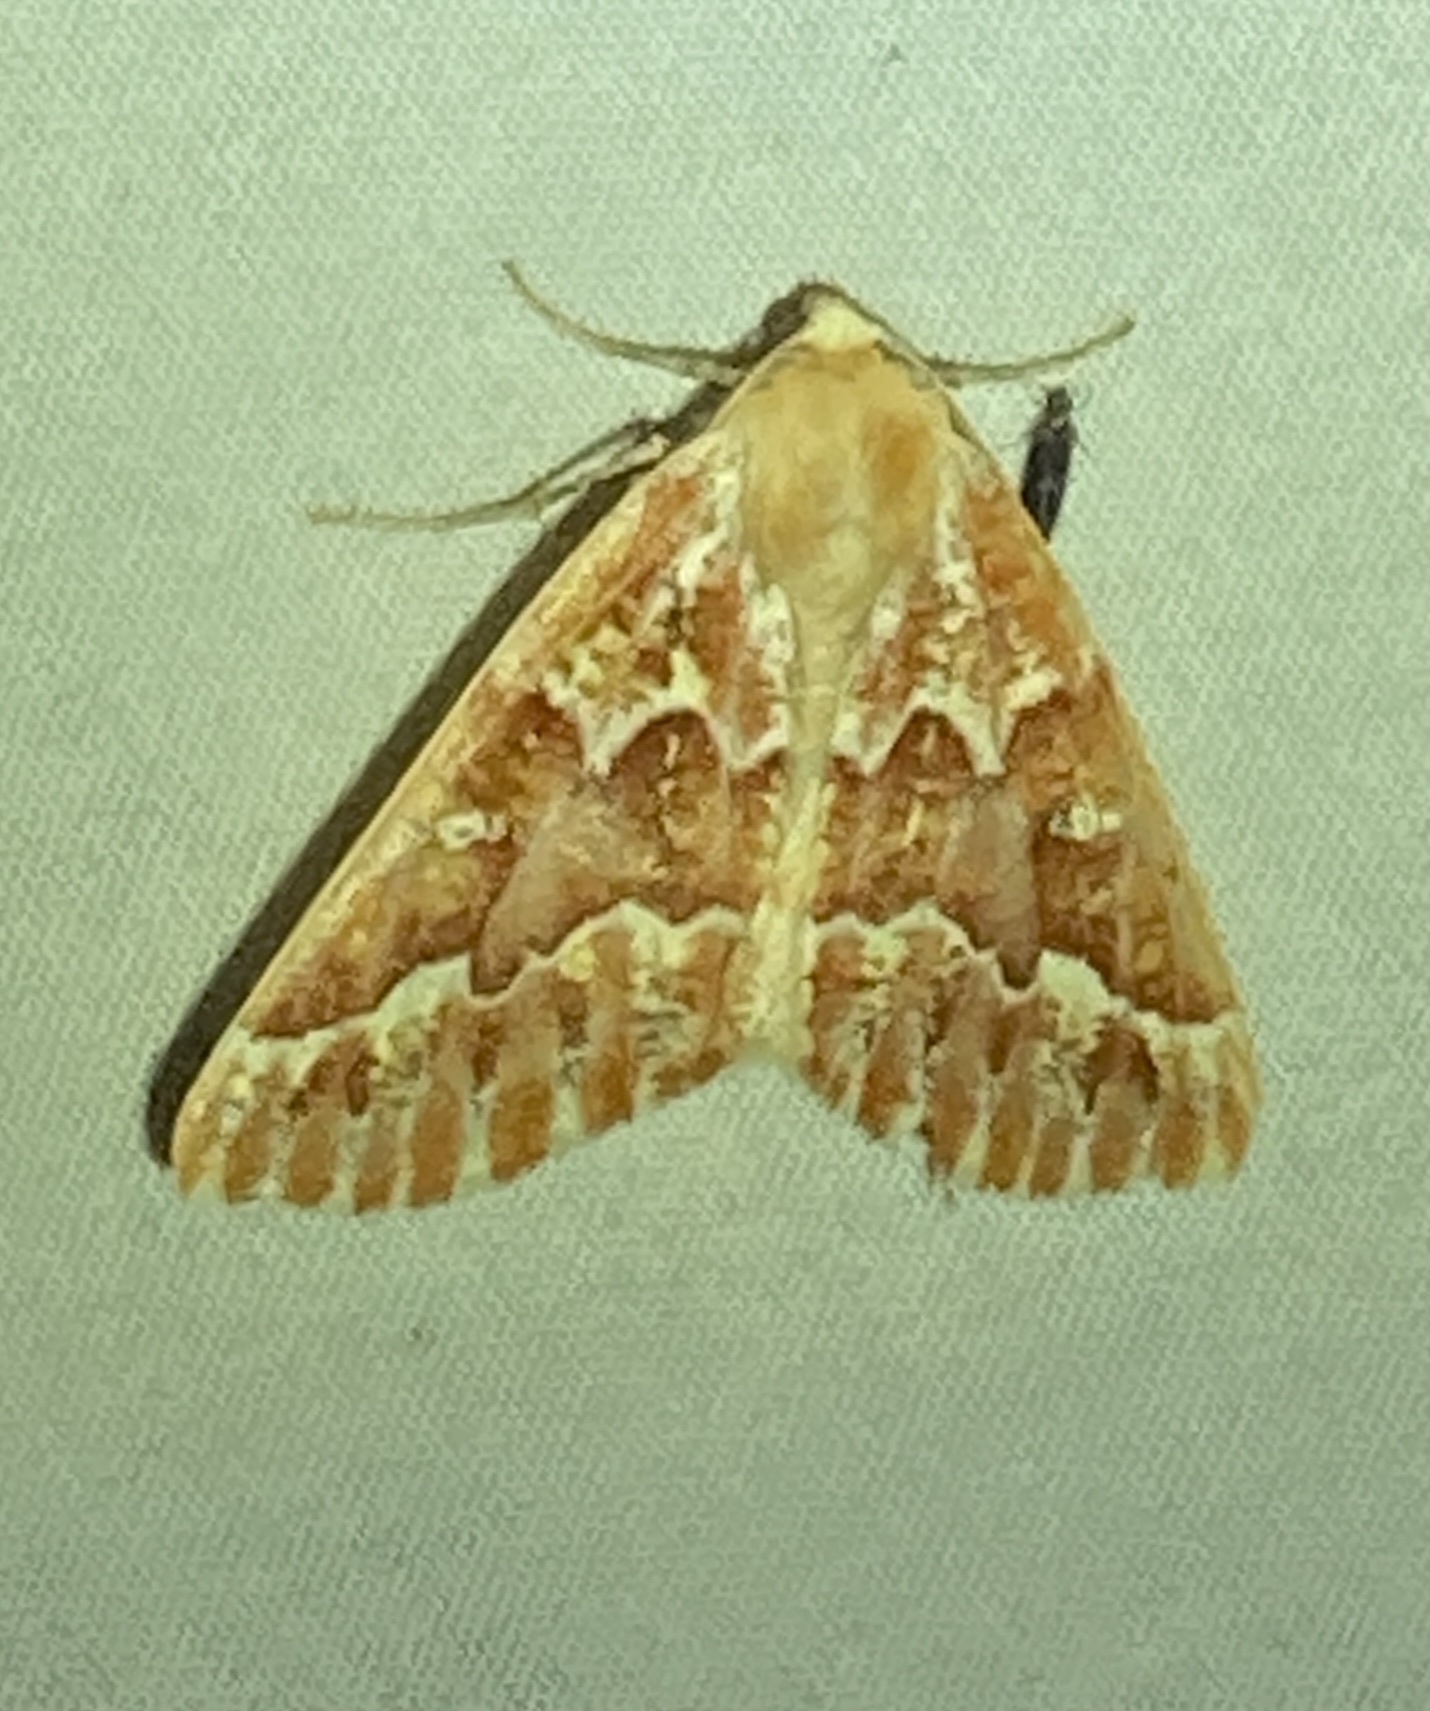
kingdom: Animalia
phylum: Arthropoda
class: Insecta
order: Lepidoptera
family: Geometridae
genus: Caripeta
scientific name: Caripeta aequaliaria
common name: Red girdle moth
